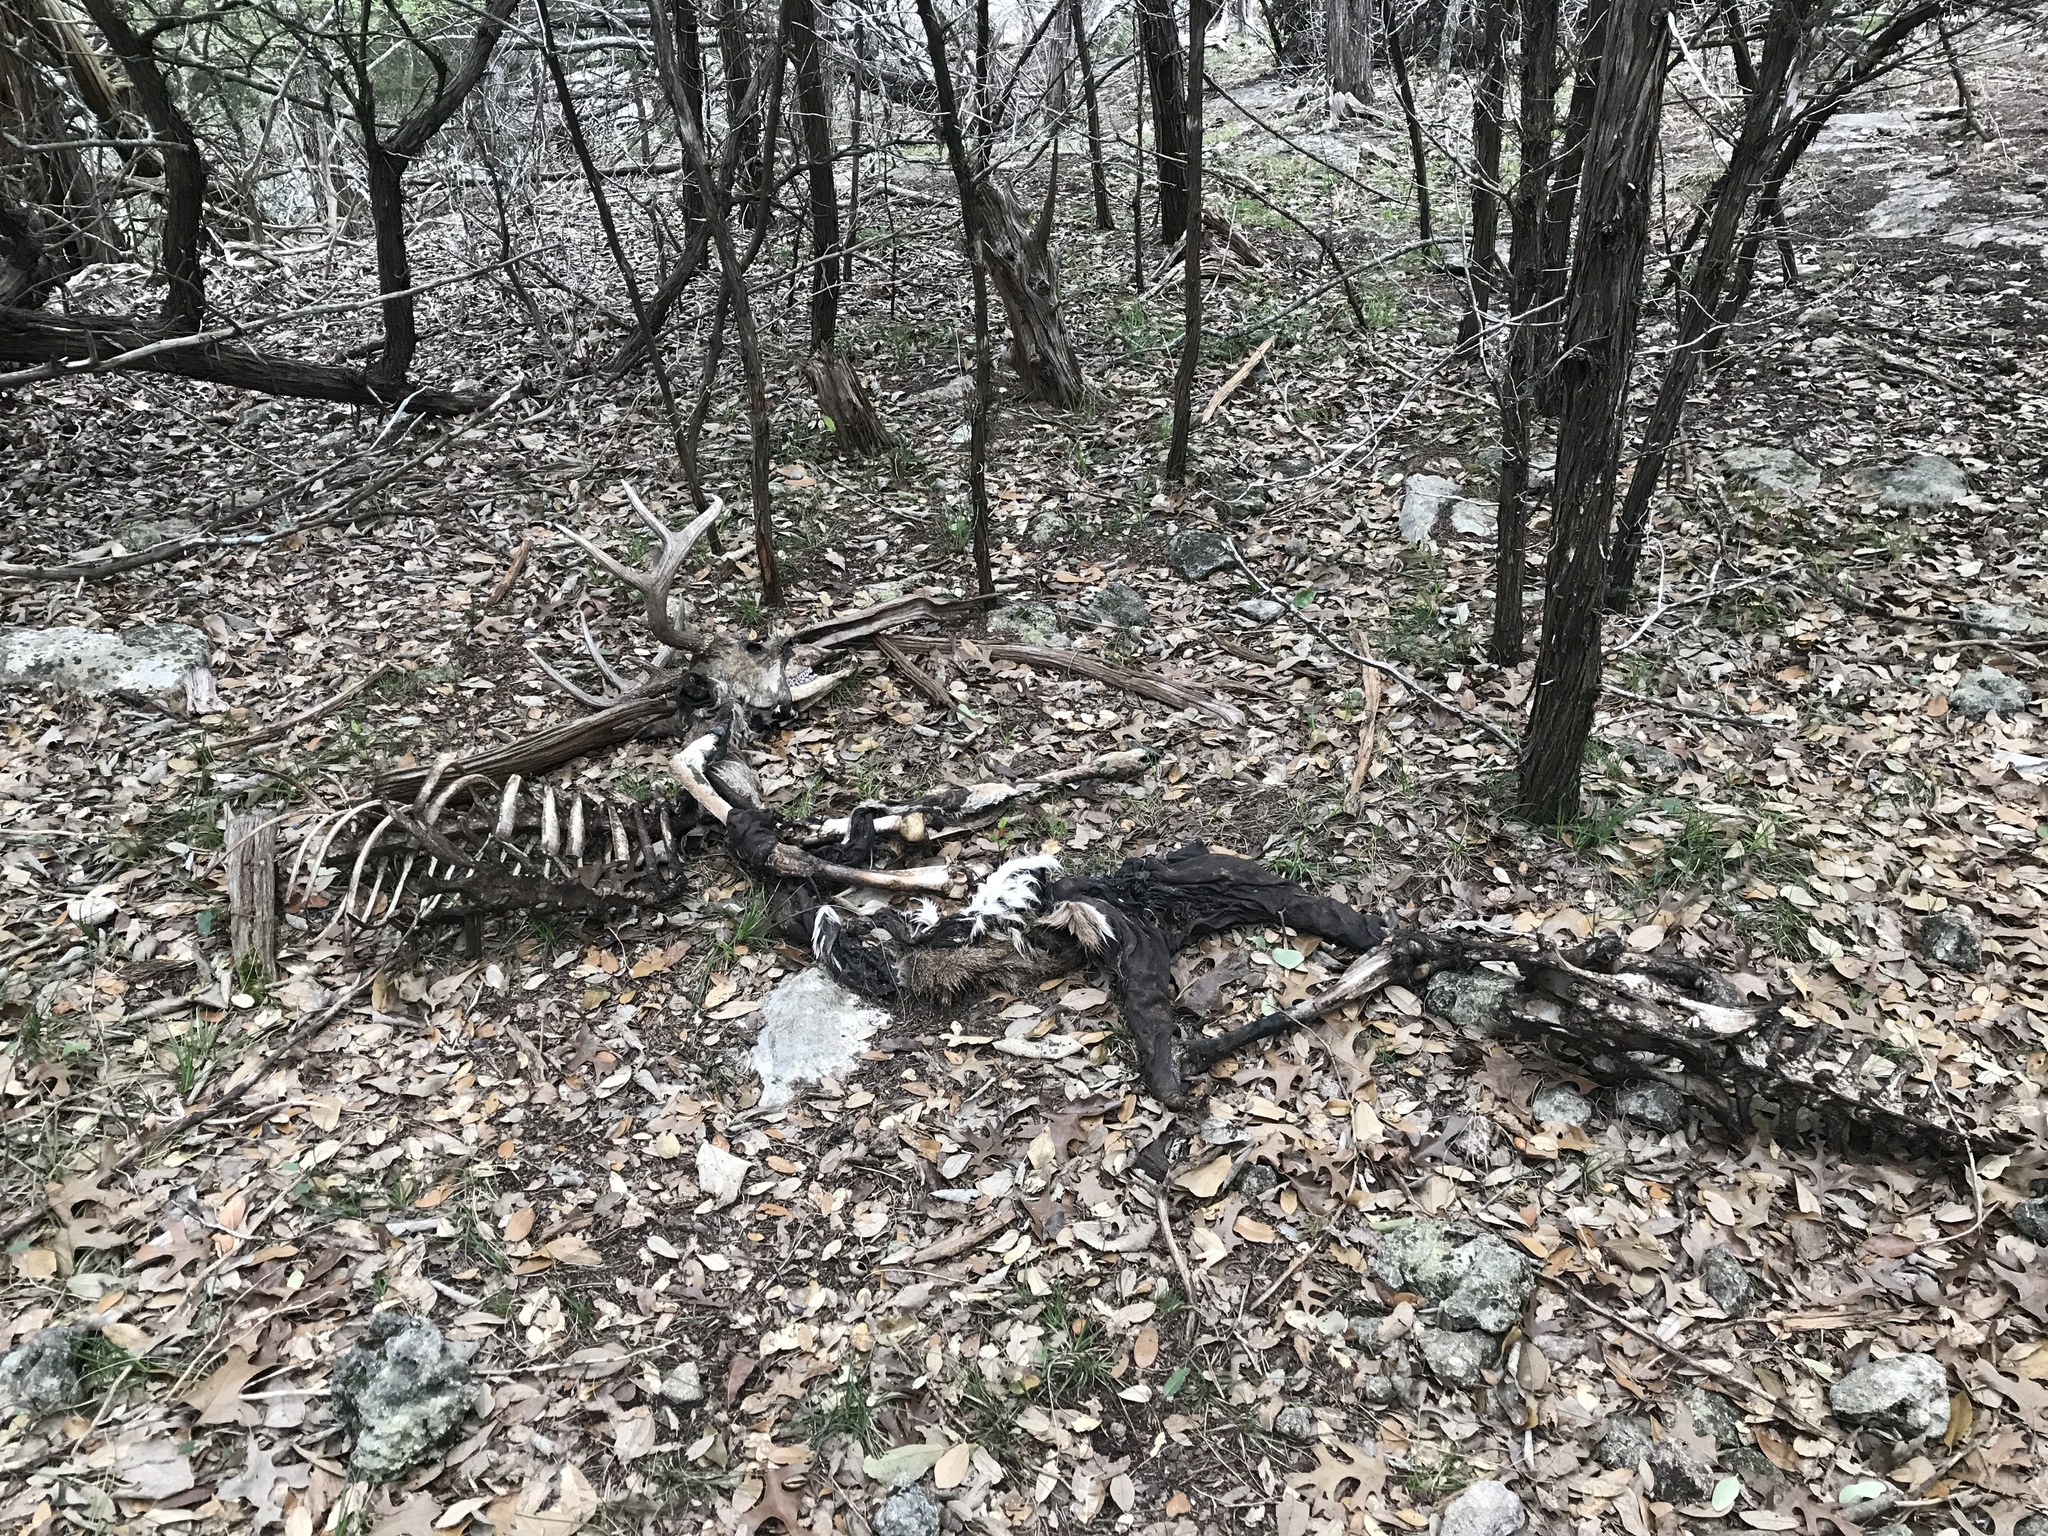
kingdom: Animalia
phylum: Chordata
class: Mammalia
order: Artiodactyla
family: Cervidae
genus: Odocoileus
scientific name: Odocoileus virginianus
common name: White-tailed deer
